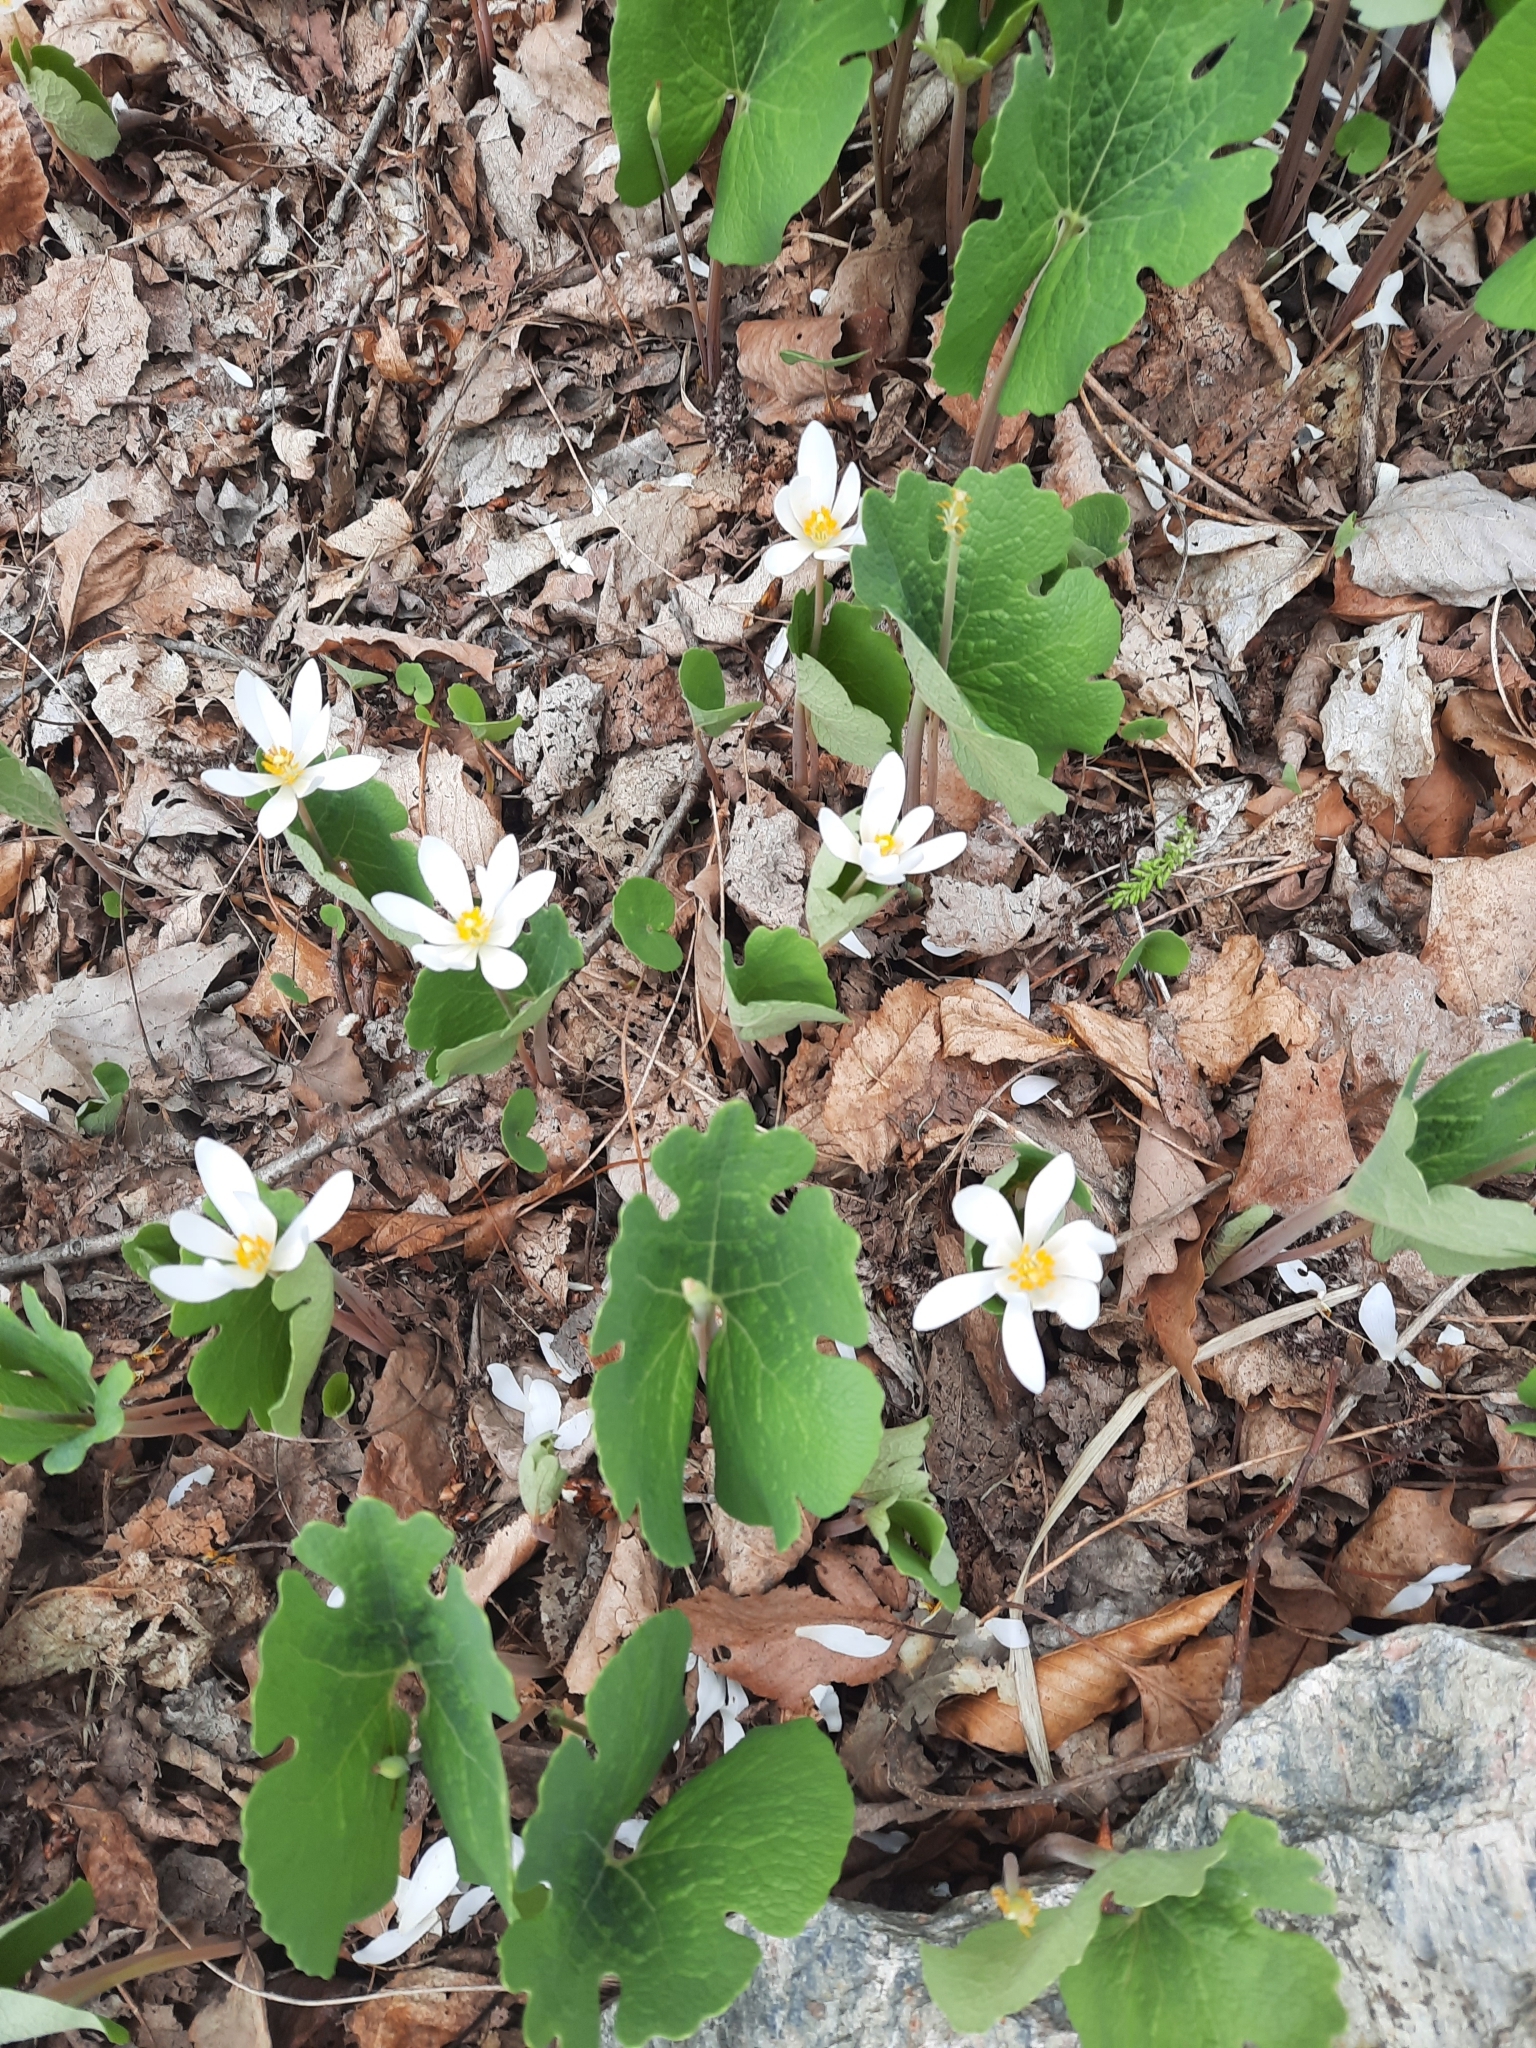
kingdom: Plantae
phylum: Tracheophyta
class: Magnoliopsida
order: Ranunculales
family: Papaveraceae
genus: Sanguinaria
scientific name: Sanguinaria canadensis
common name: Bloodroot
